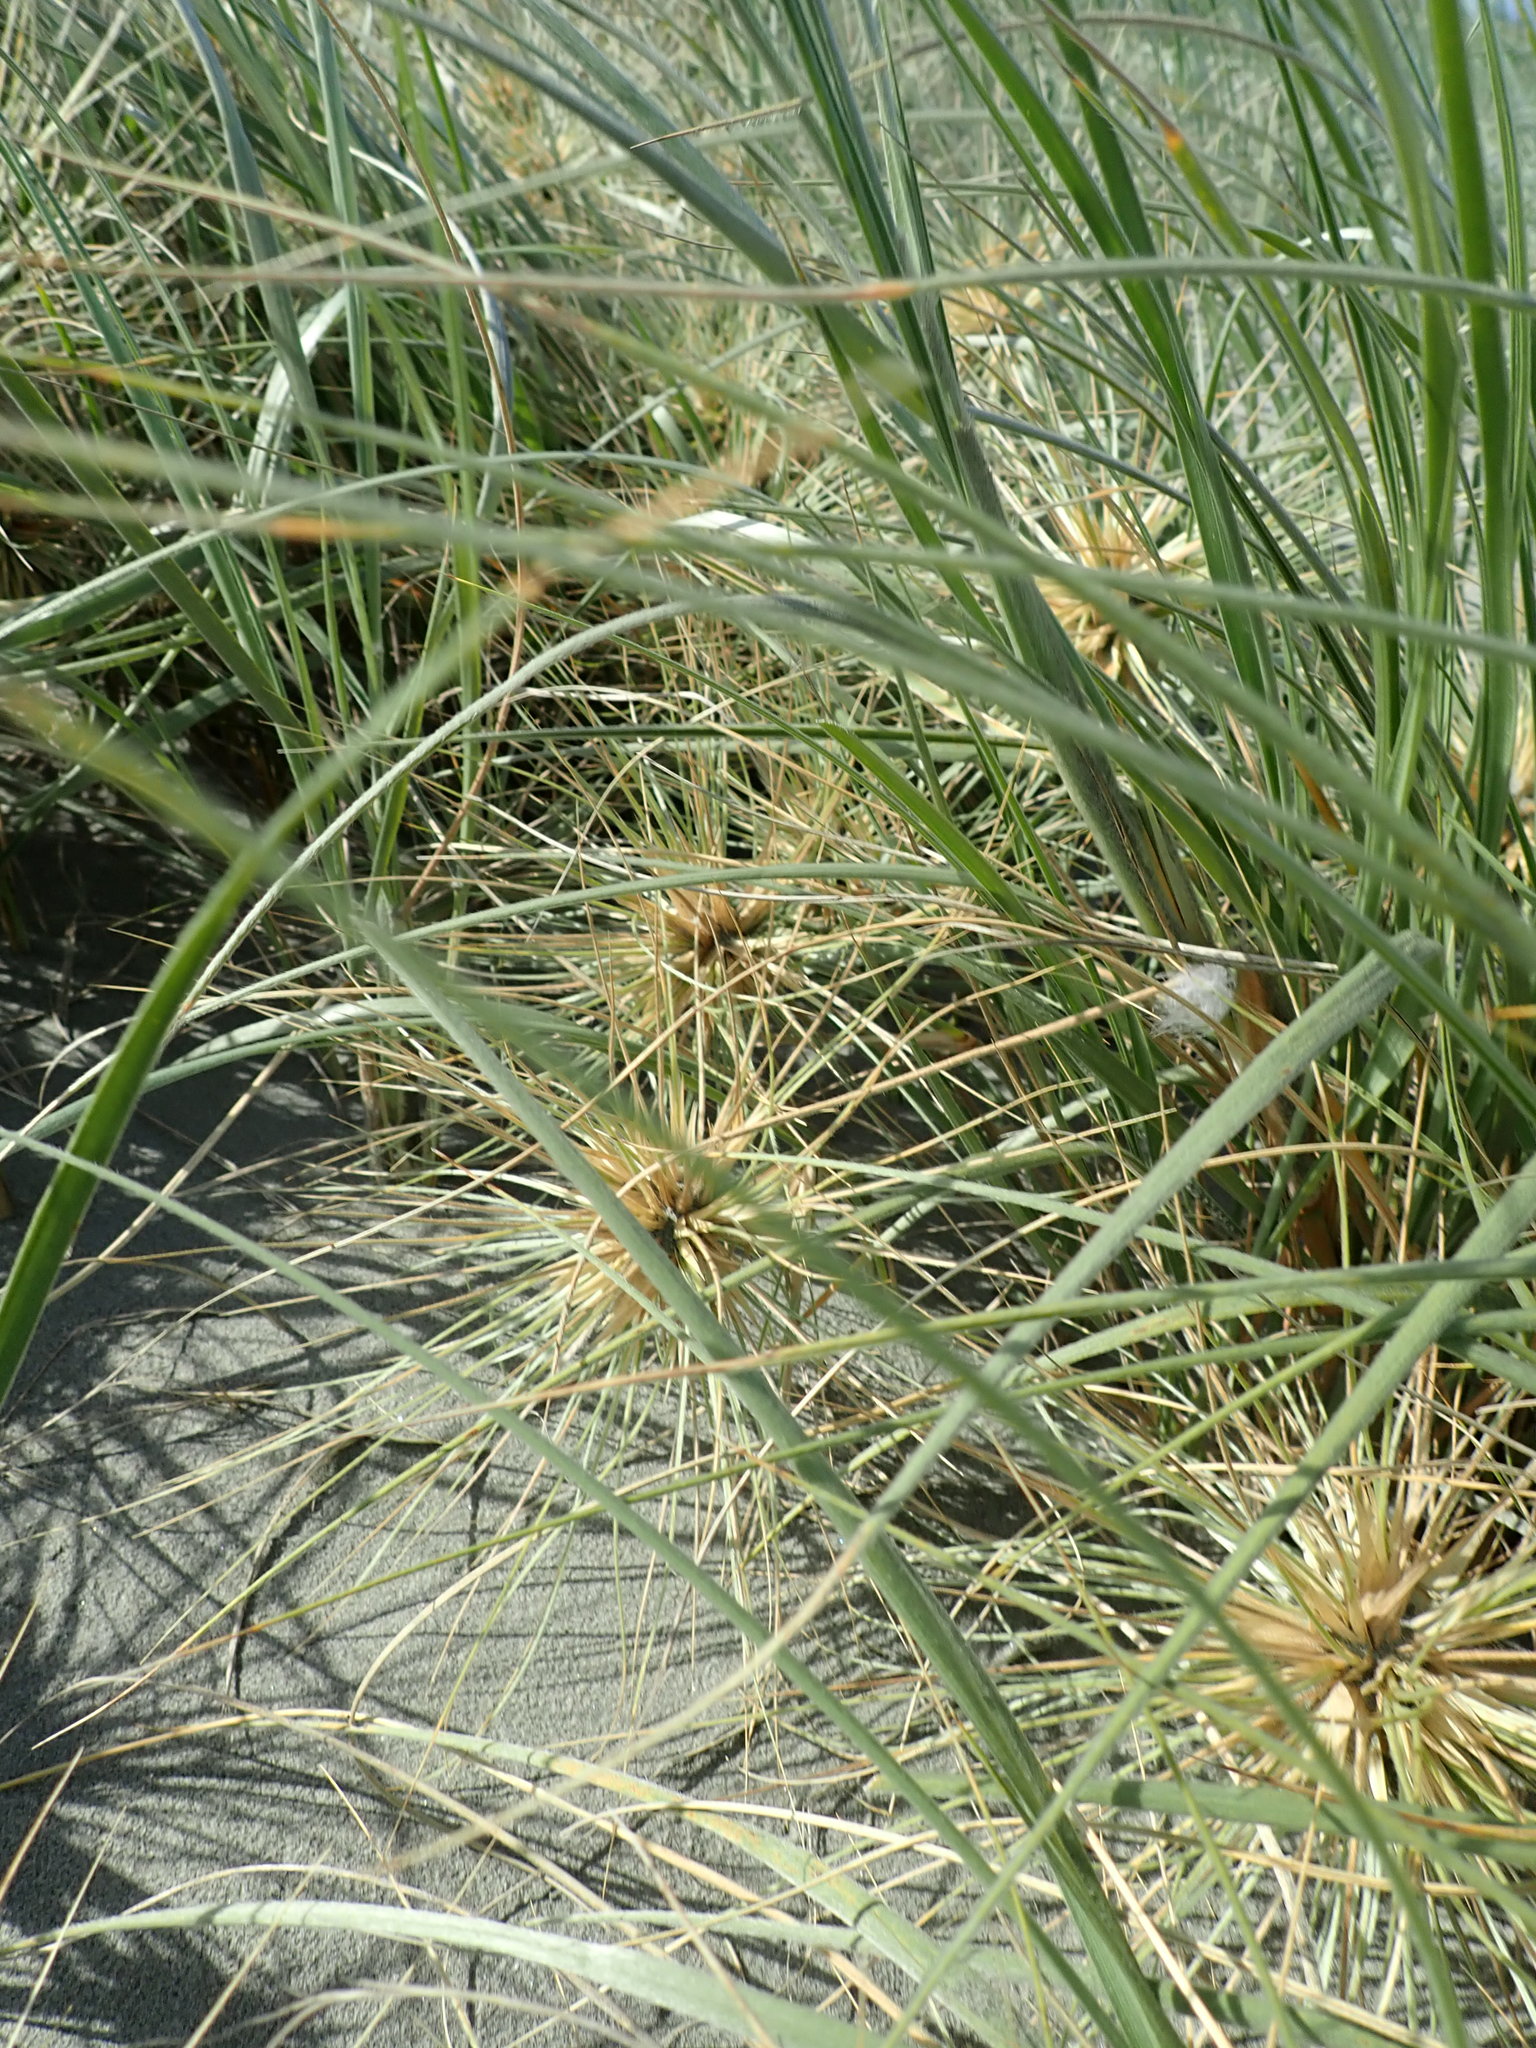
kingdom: Plantae
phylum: Tracheophyta
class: Liliopsida
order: Poales
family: Poaceae
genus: Spinifex
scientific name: Spinifex sericeus
